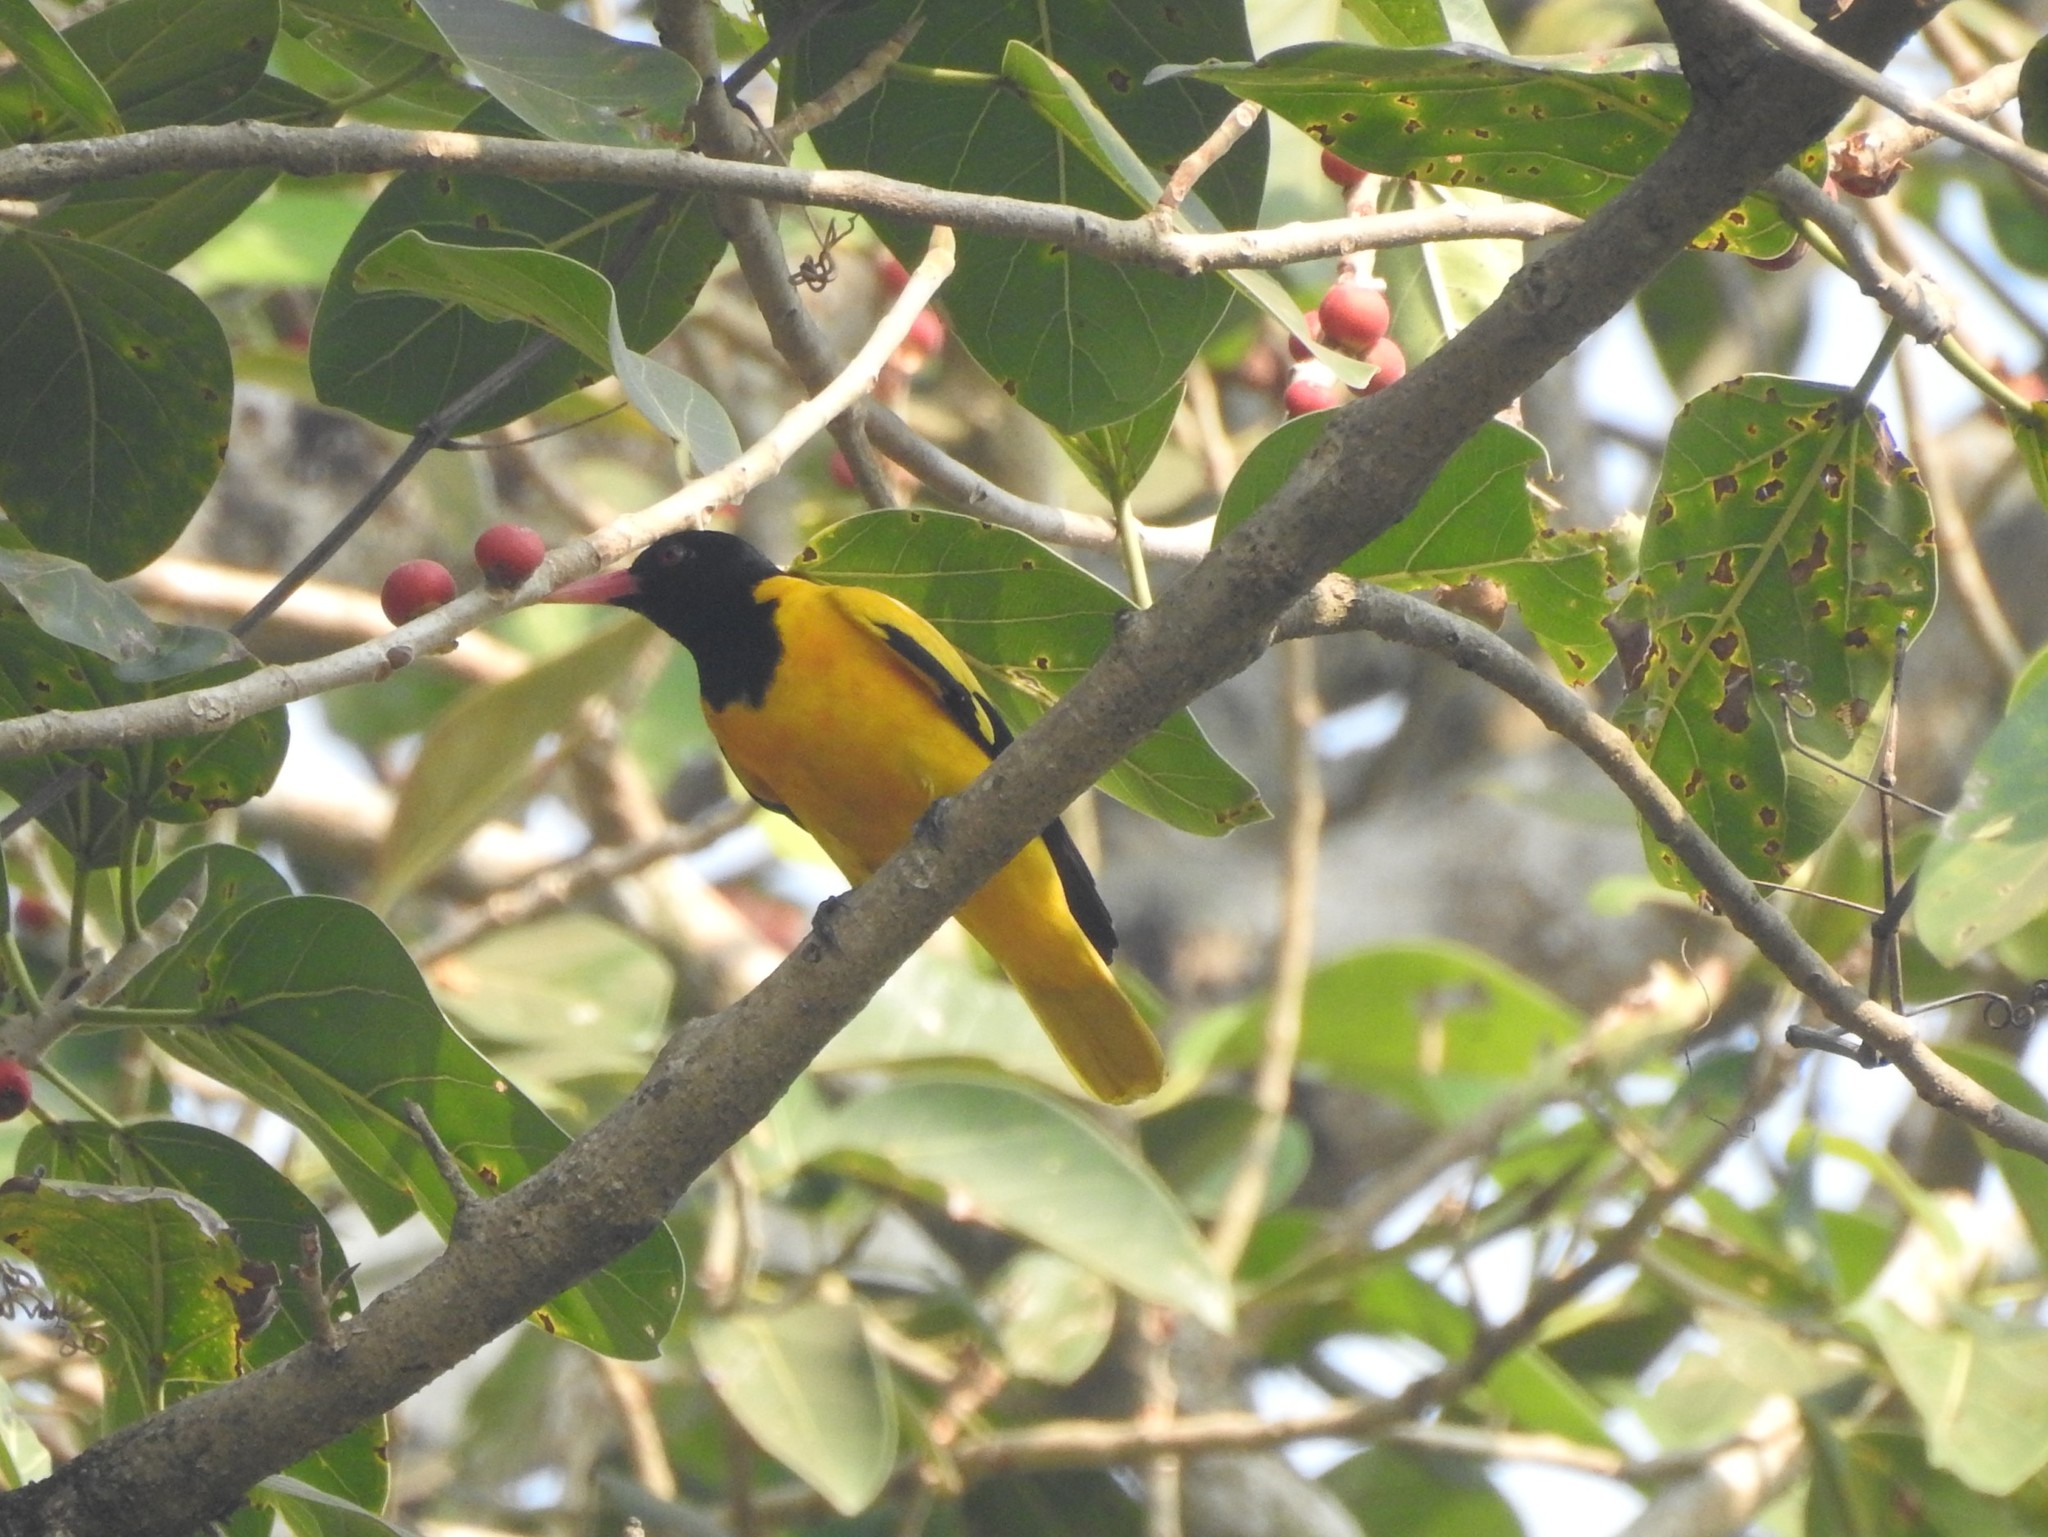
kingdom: Animalia
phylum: Chordata
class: Aves
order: Passeriformes
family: Oriolidae
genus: Oriolus
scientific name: Oriolus xanthornus
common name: Black-hooded oriole
